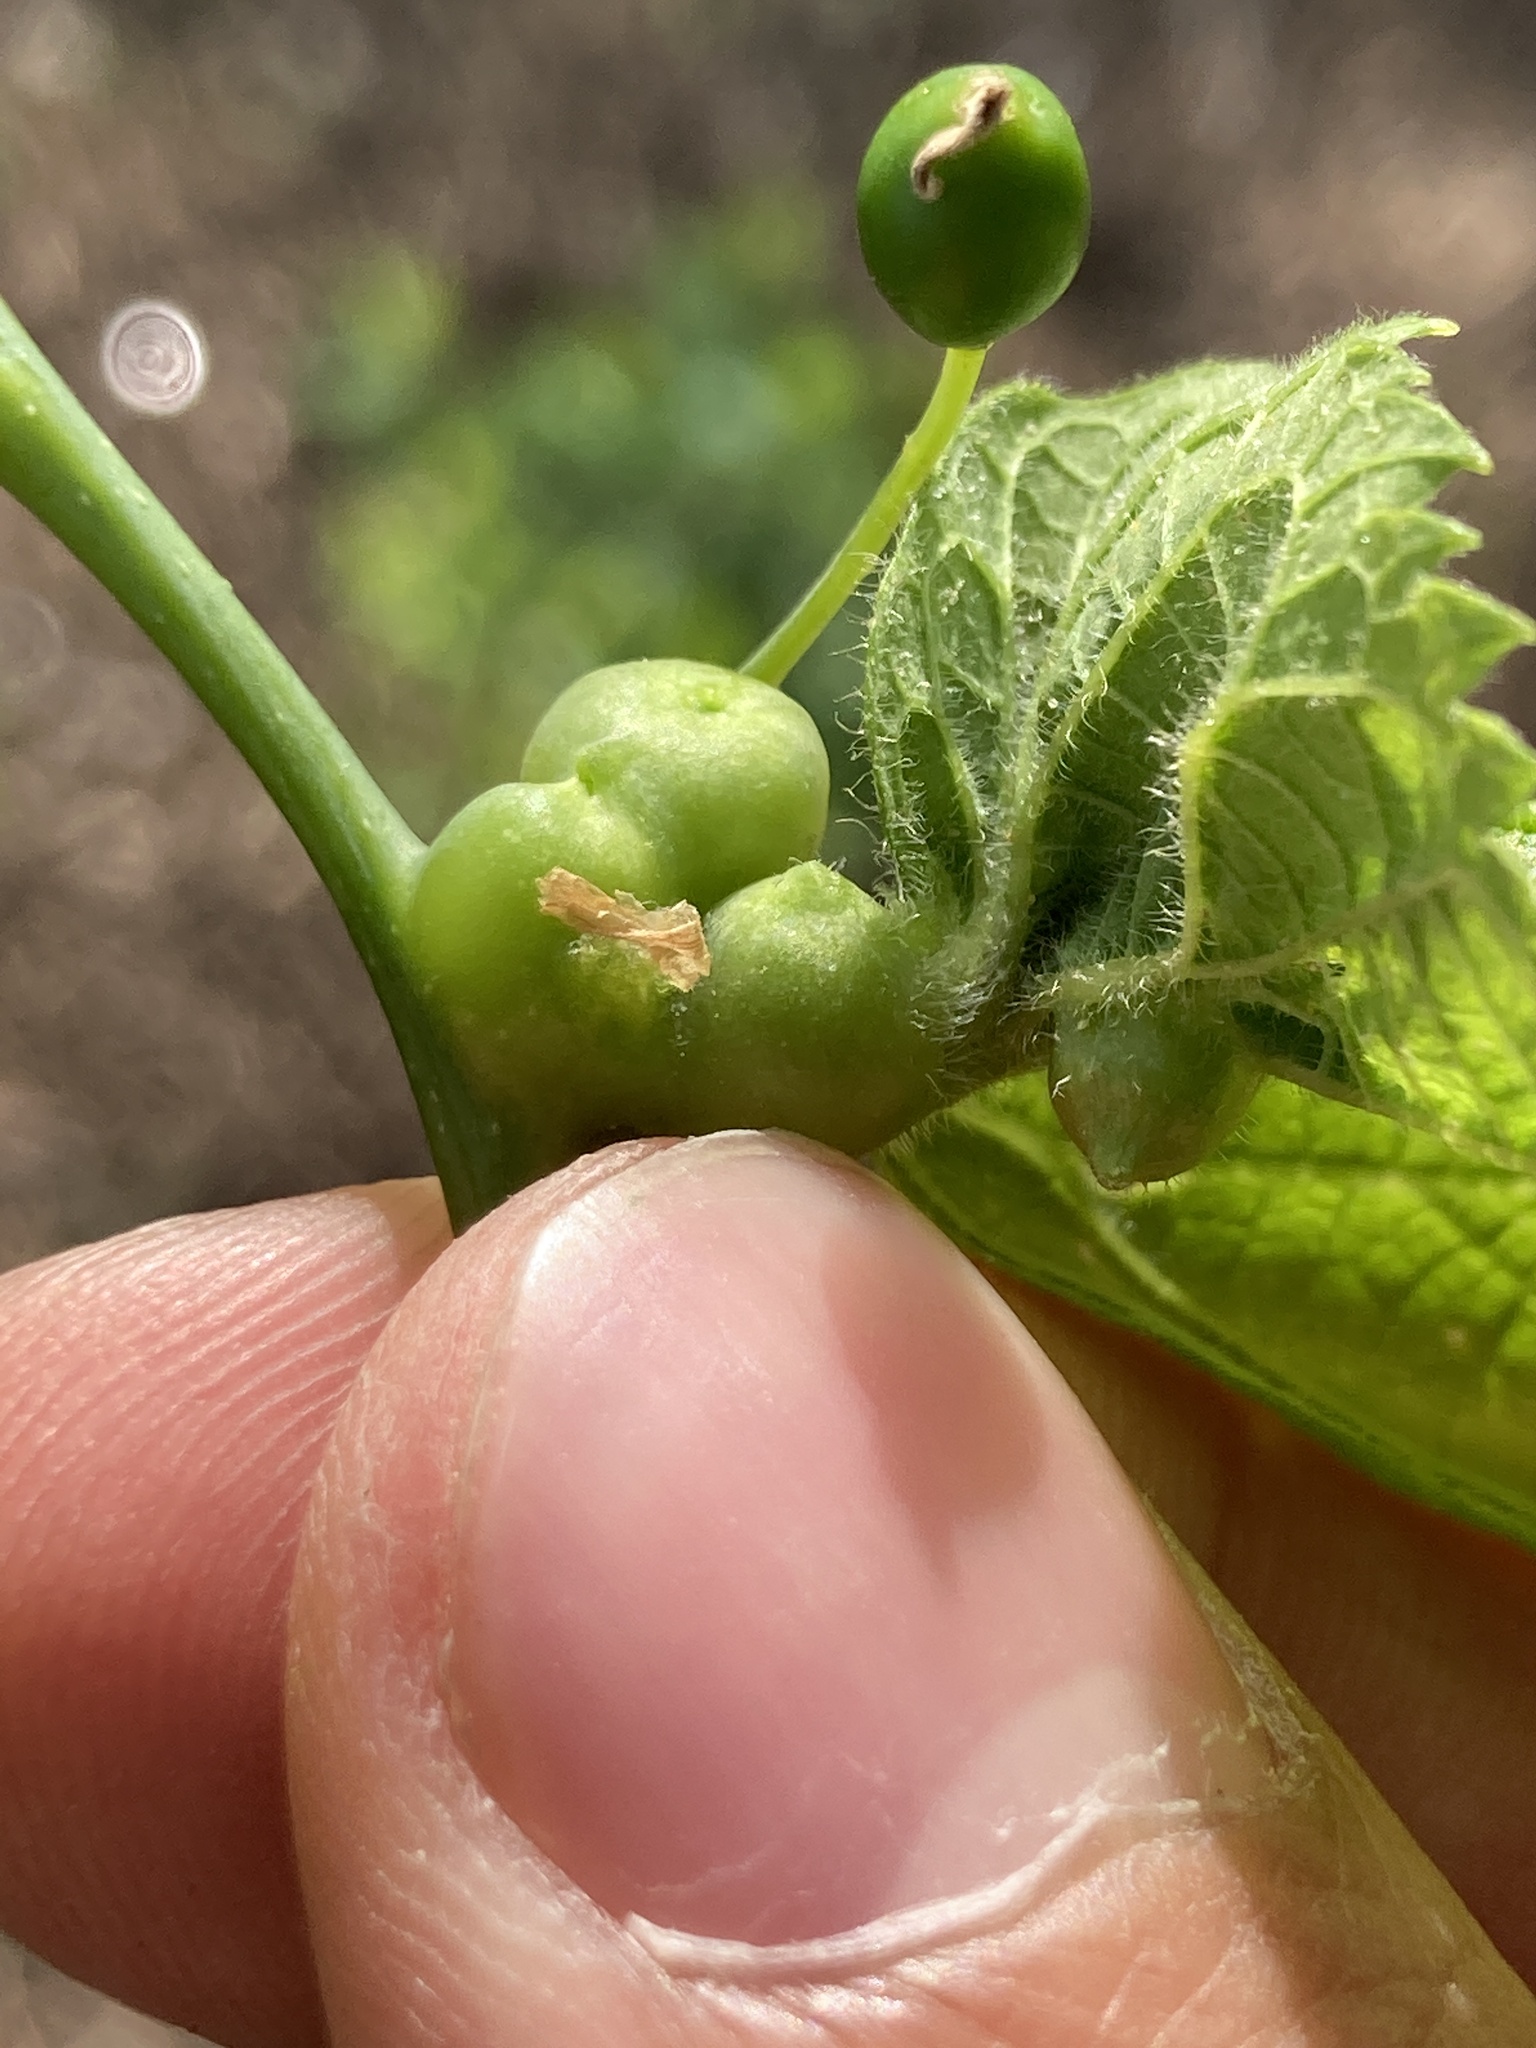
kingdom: Animalia
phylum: Arthropoda
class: Insecta
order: Diptera
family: Cecidomyiidae
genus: Celticecis
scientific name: Celticecis expulsa
